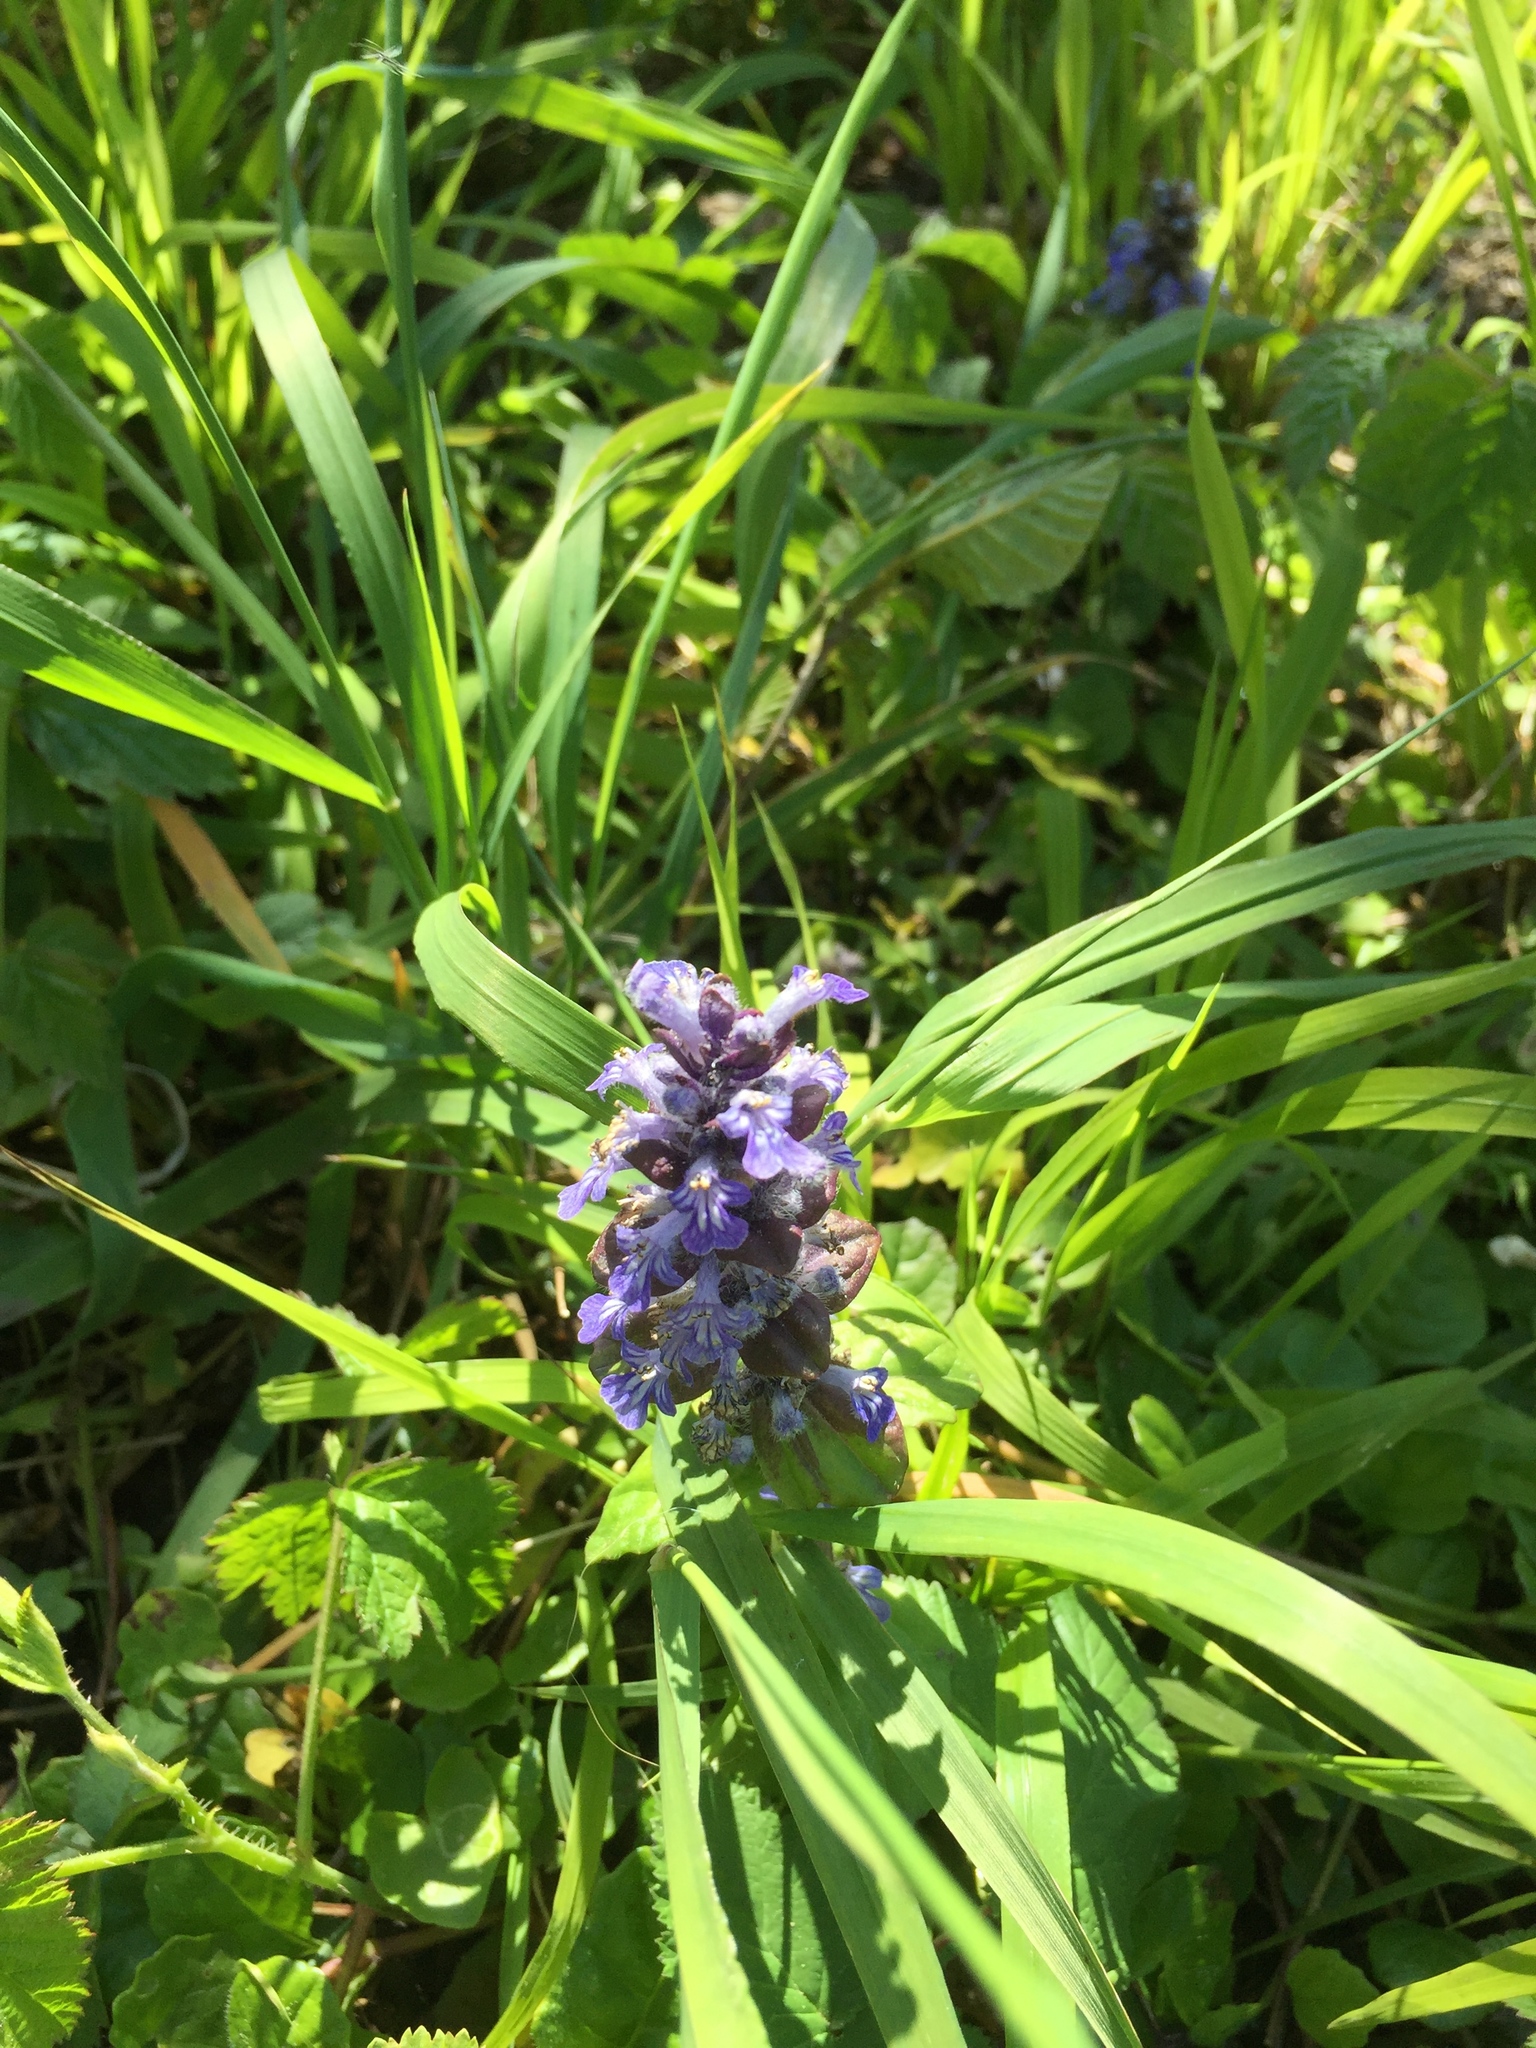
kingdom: Plantae
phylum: Tracheophyta
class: Magnoliopsida
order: Lamiales
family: Lamiaceae
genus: Ajuga
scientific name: Ajuga reptans
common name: Bugle
